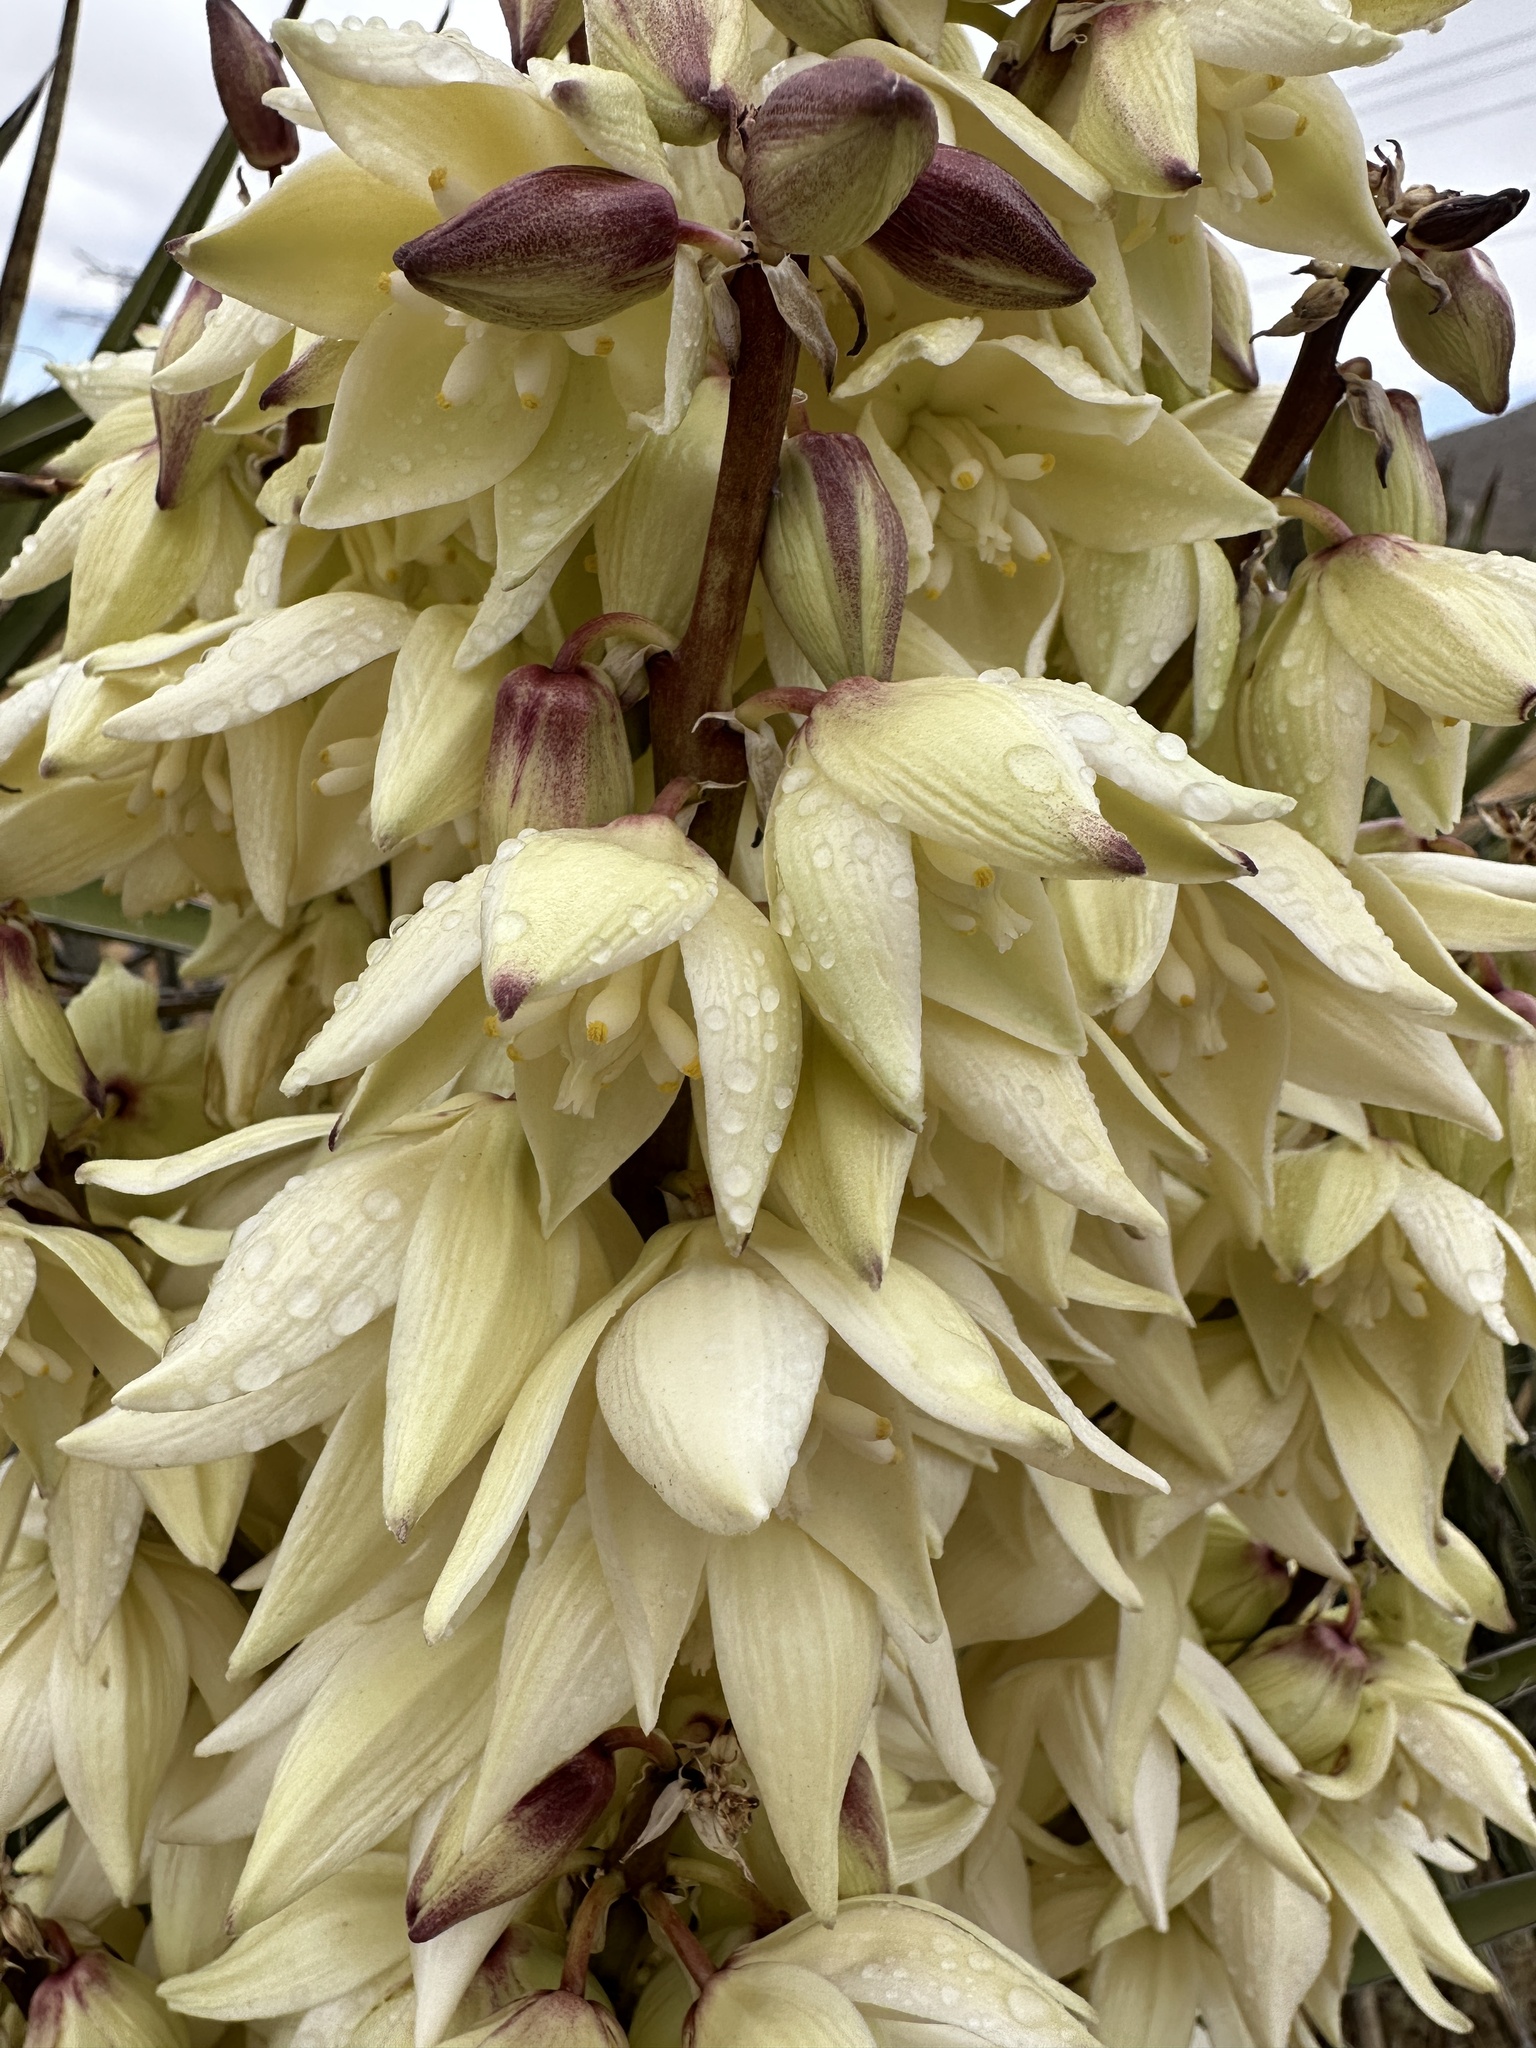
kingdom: Plantae
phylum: Tracheophyta
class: Liliopsida
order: Asparagales
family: Asparagaceae
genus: Yucca
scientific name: Yucca schidigera
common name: Mojave yucca
